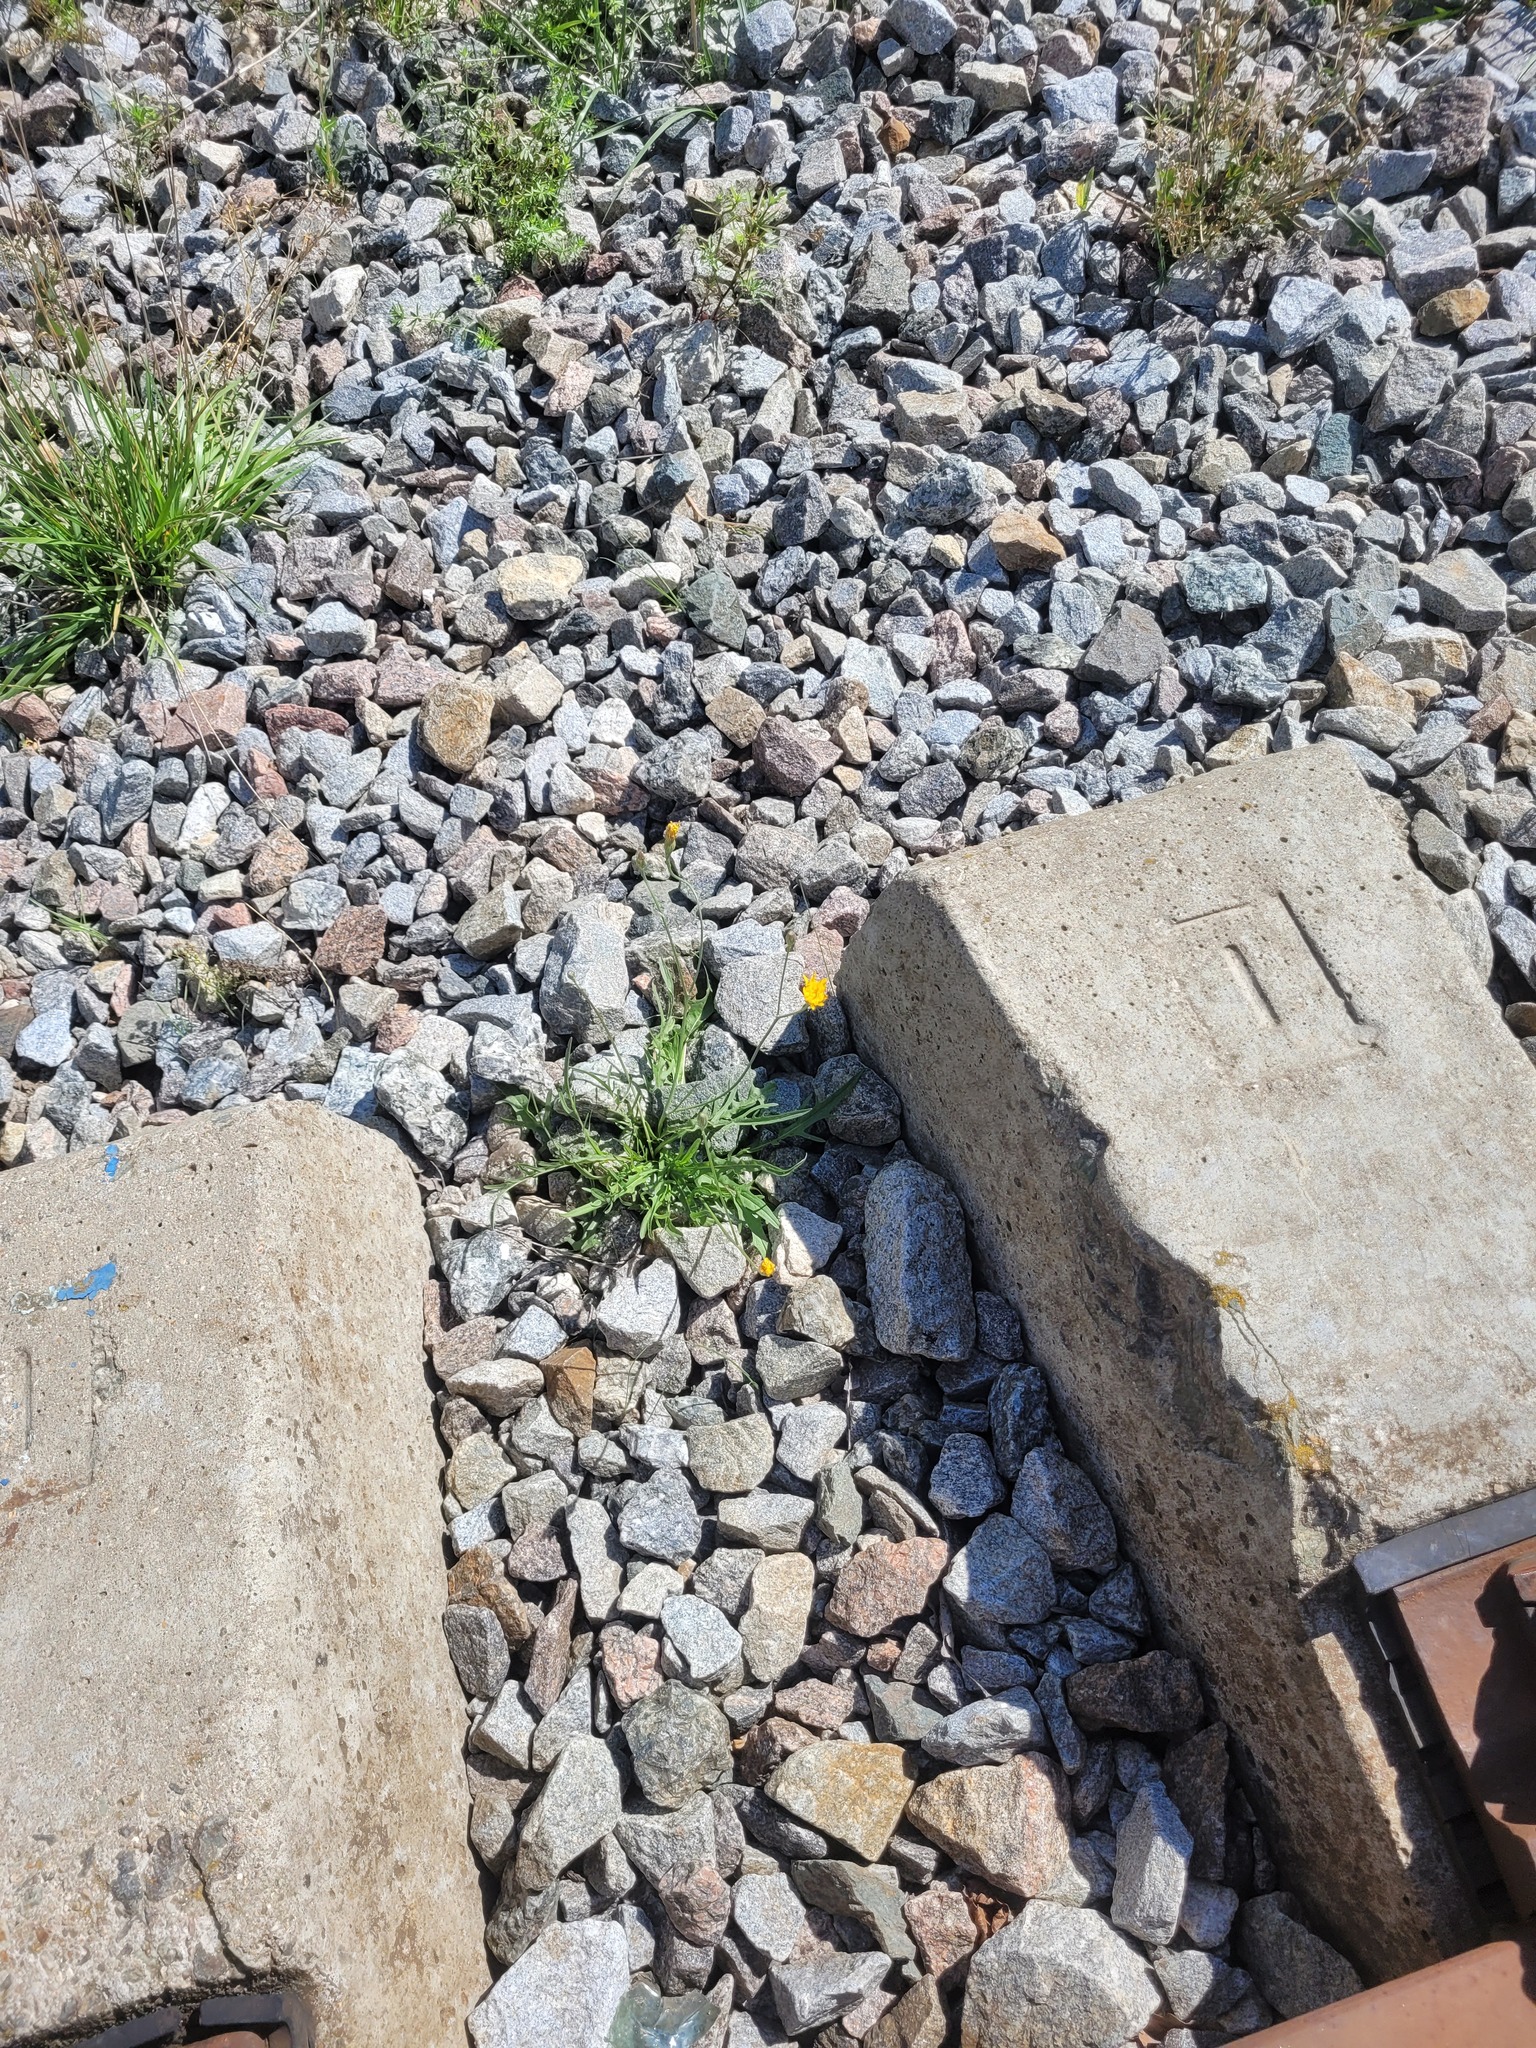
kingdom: Plantae
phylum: Tracheophyta
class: Magnoliopsida
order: Asterales
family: Asteraceae
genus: Scorzoneroides
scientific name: Scorzoneroides autumnalis
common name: Autumn hawkbit
